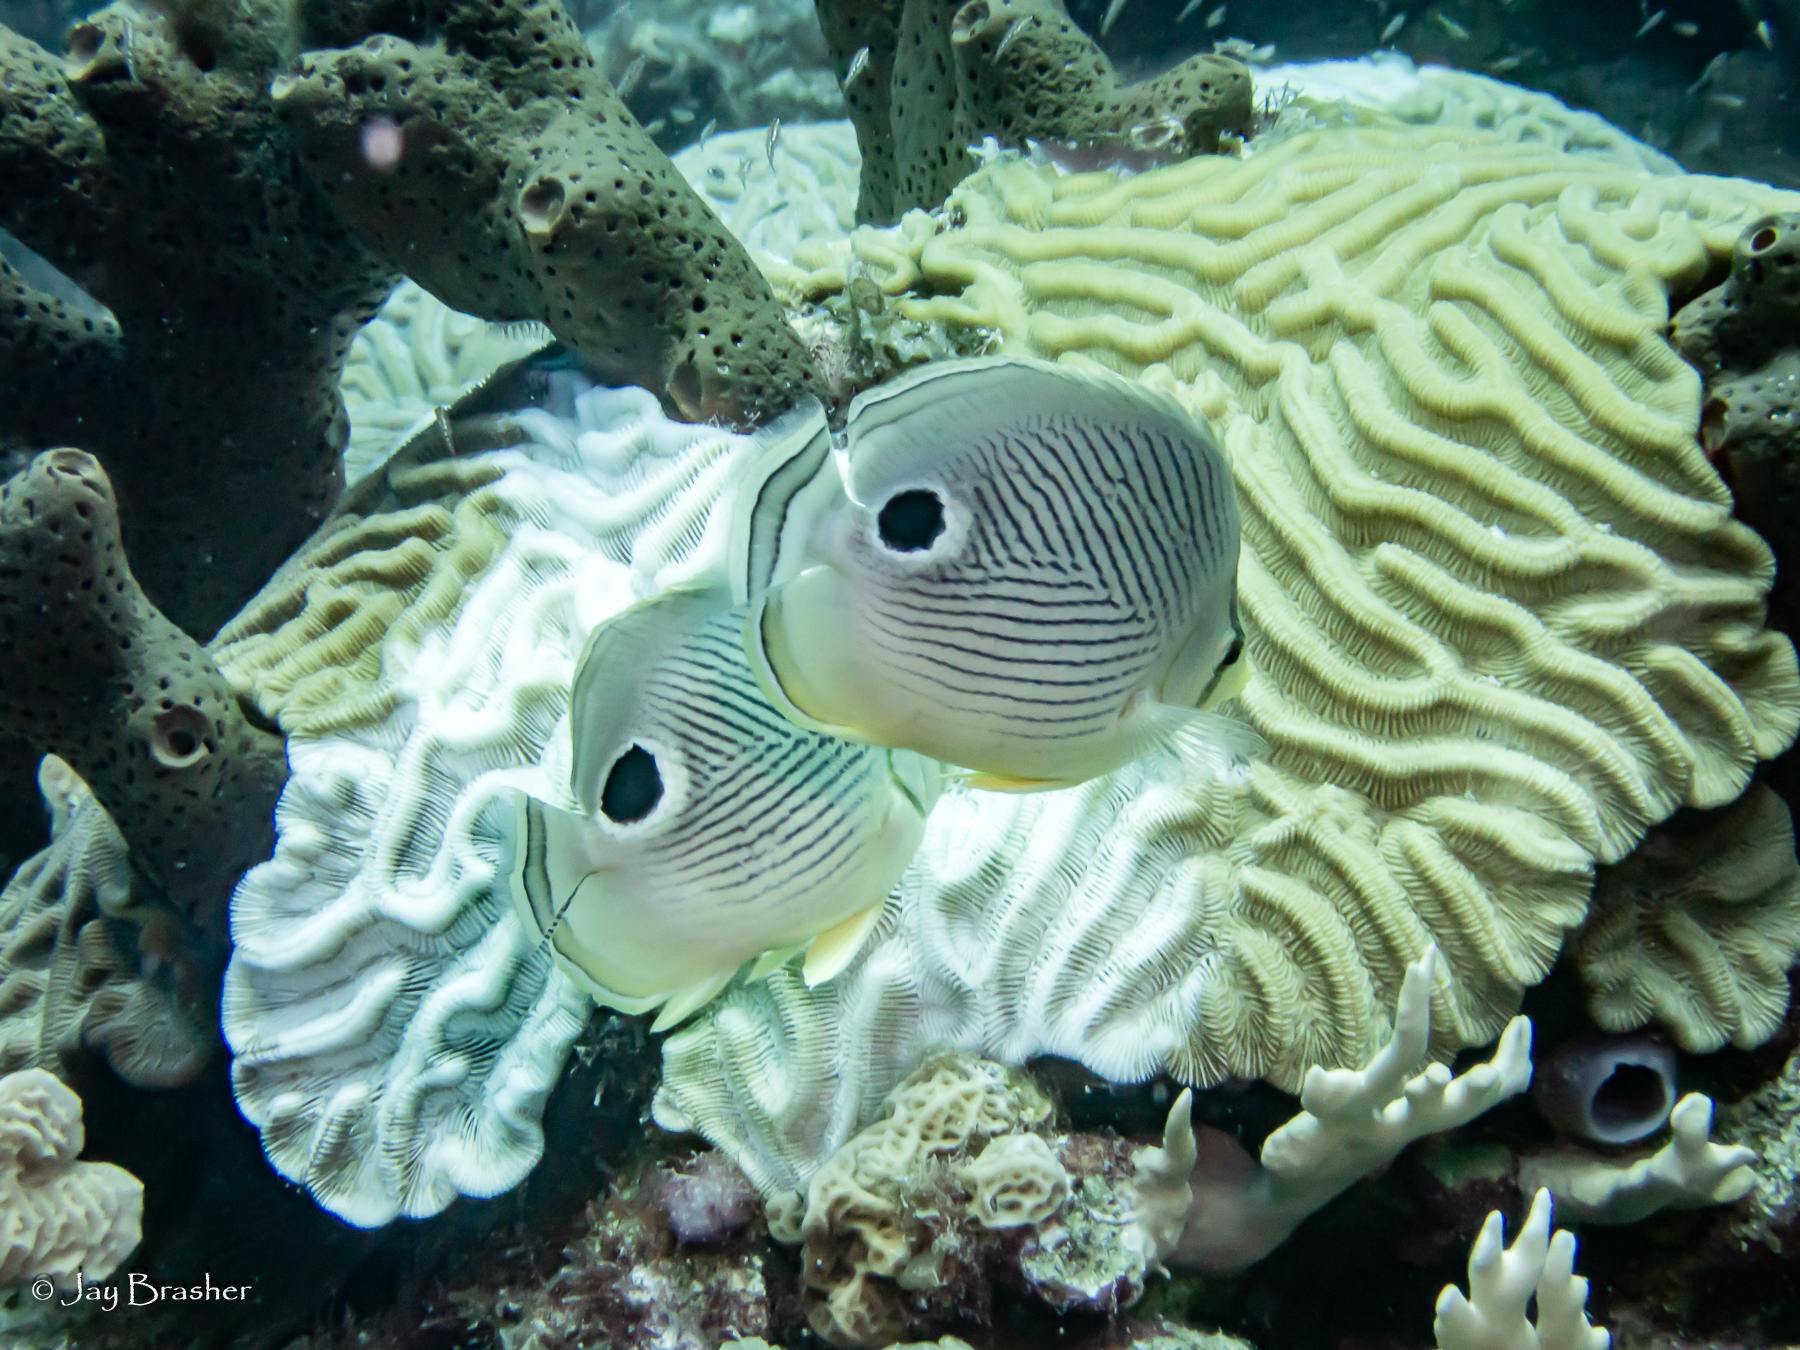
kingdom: Animalia
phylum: Cnidaria
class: Anthozoa
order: Scleractinia
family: Faviidae
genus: Colpophyllia
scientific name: Colpophyllia natans
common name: Boulder brain coral
